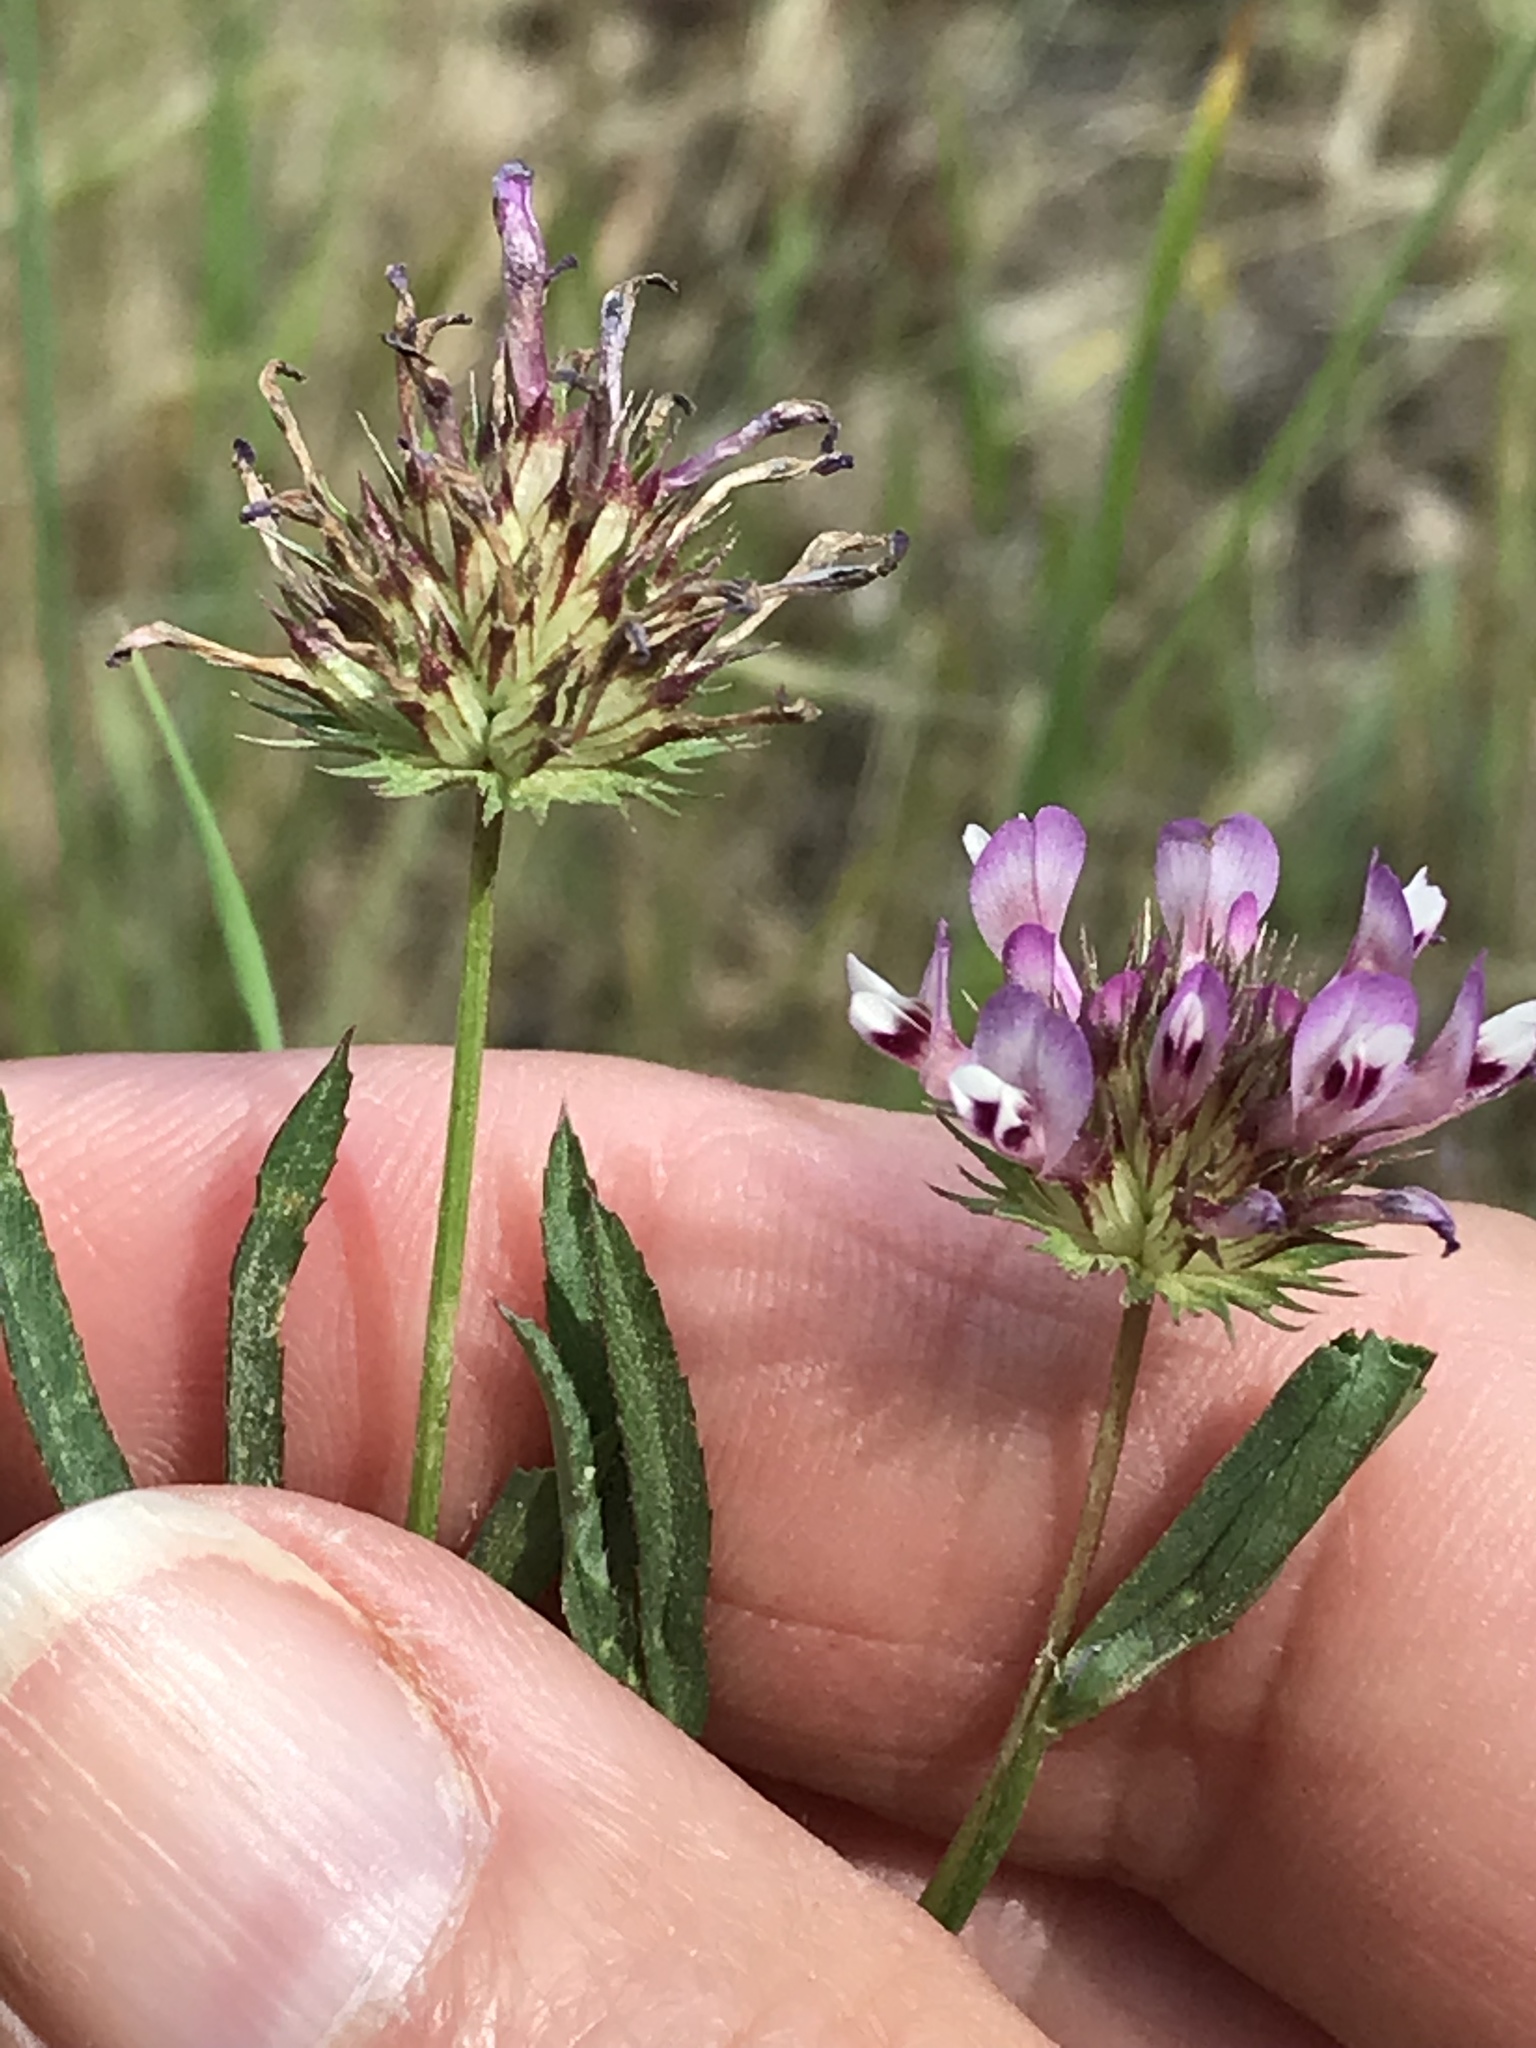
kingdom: Plantae
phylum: Tracheophyta
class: Magnoliopsida
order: Fabales
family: Fabaceae
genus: Trifolium
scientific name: Trifolium willdenovii
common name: Tomcat clover
